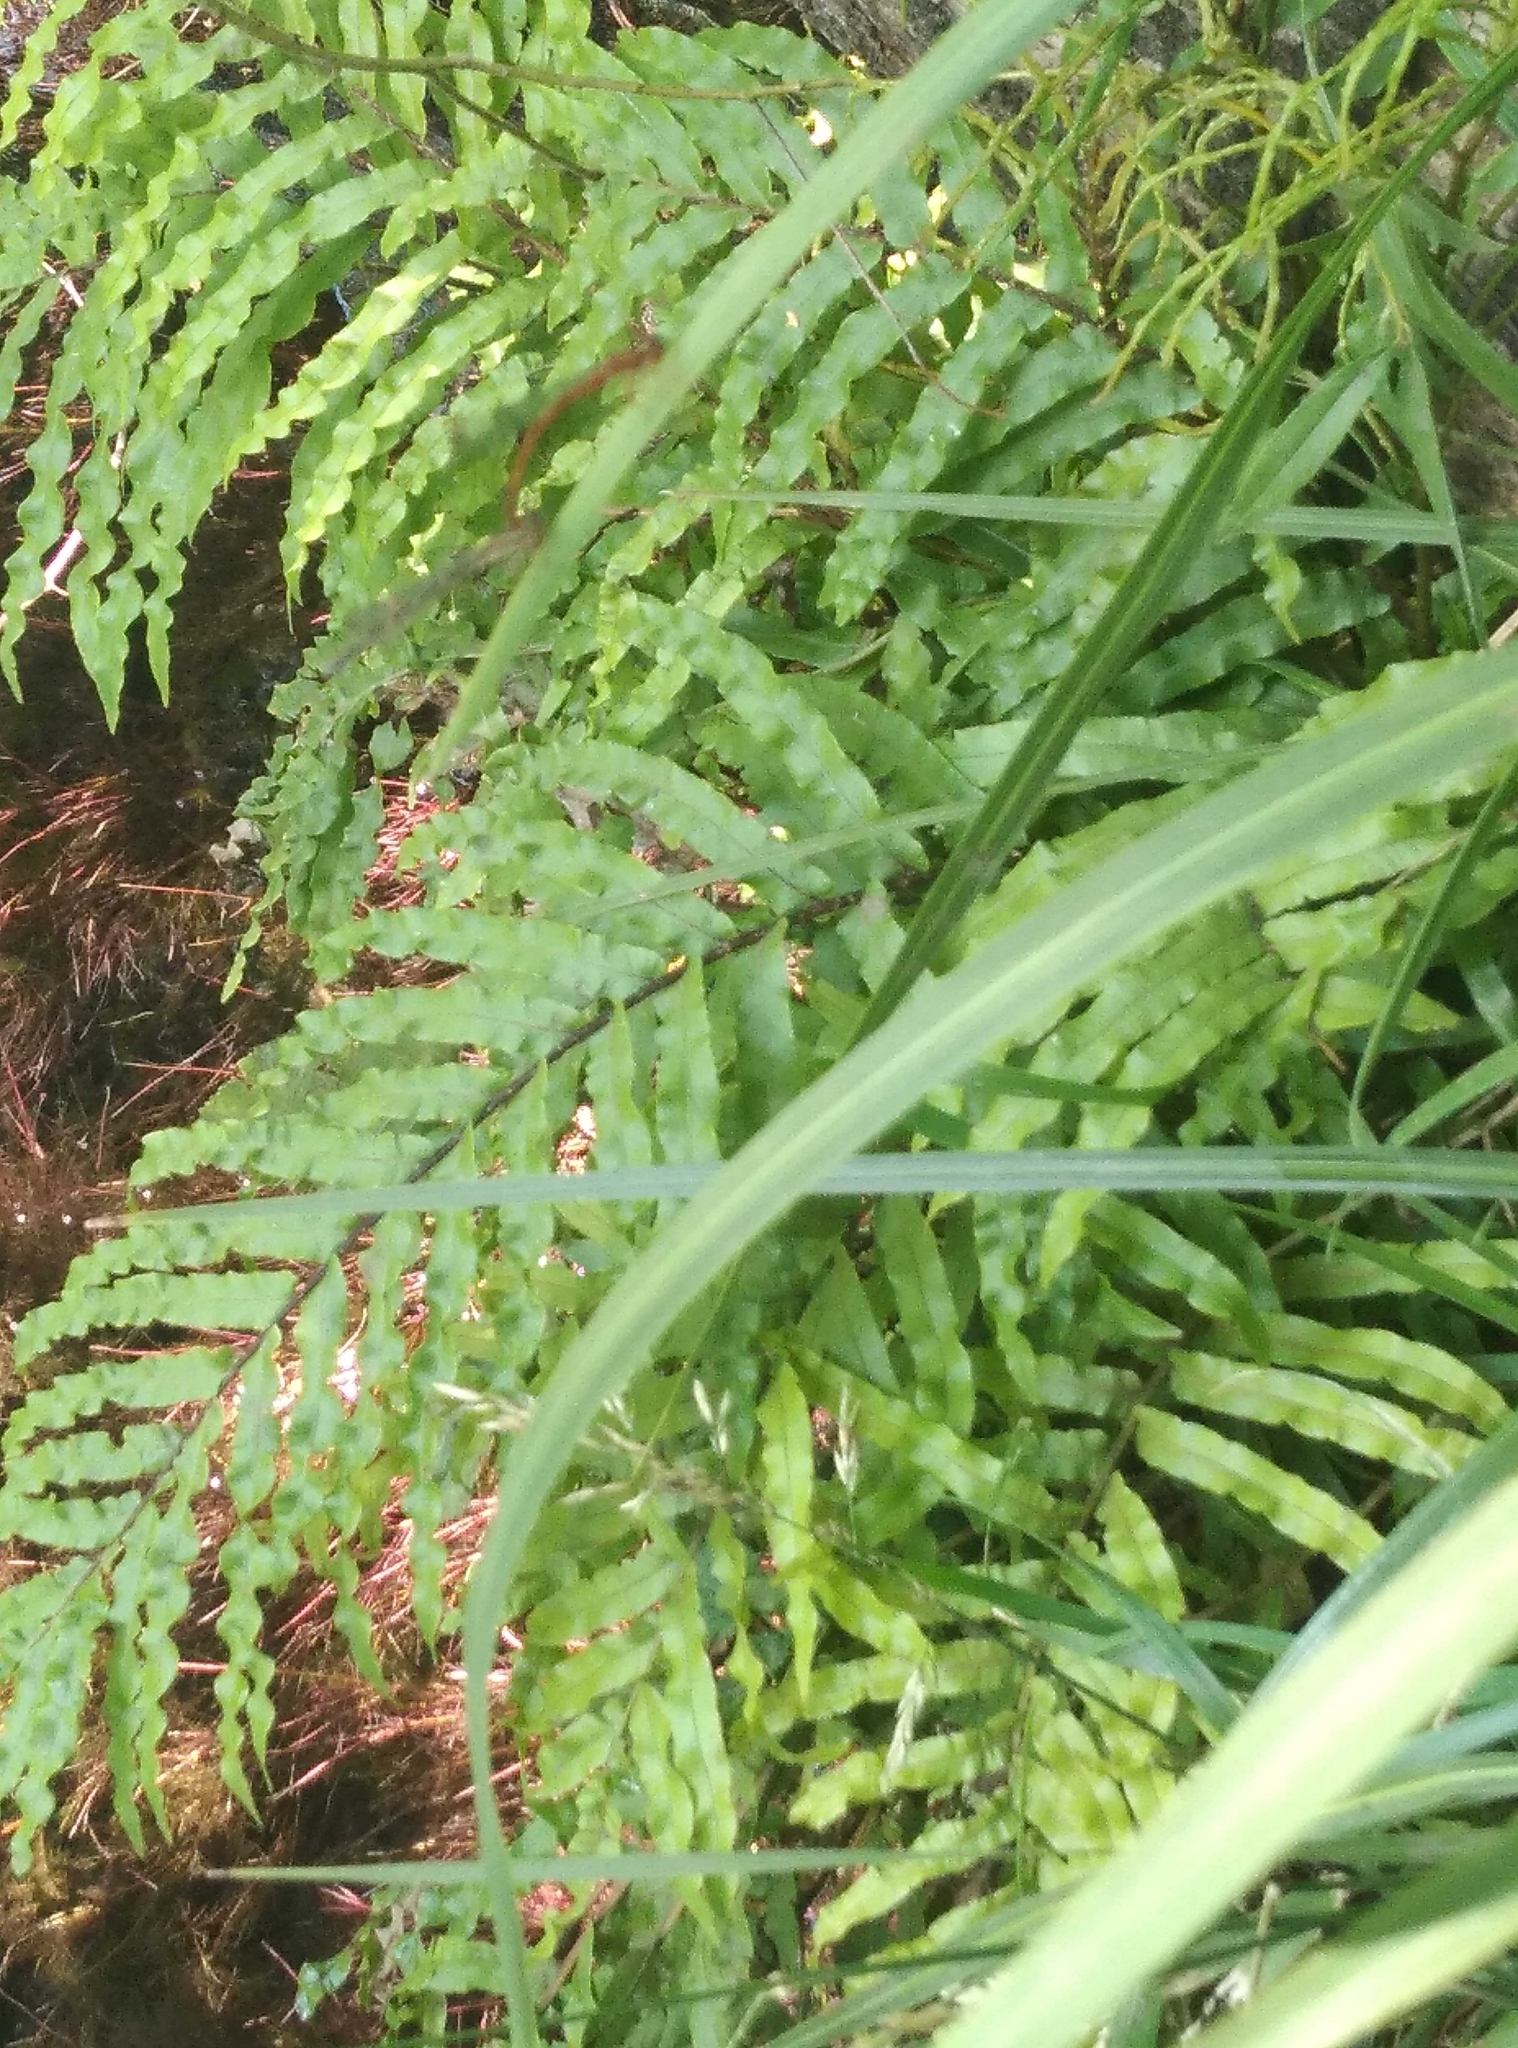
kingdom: Plantae
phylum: Tracheophyta
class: Polypodiopsida
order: Polypodiales
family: Blechnaceae
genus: Parablechnum
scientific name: Parablechnum minus
